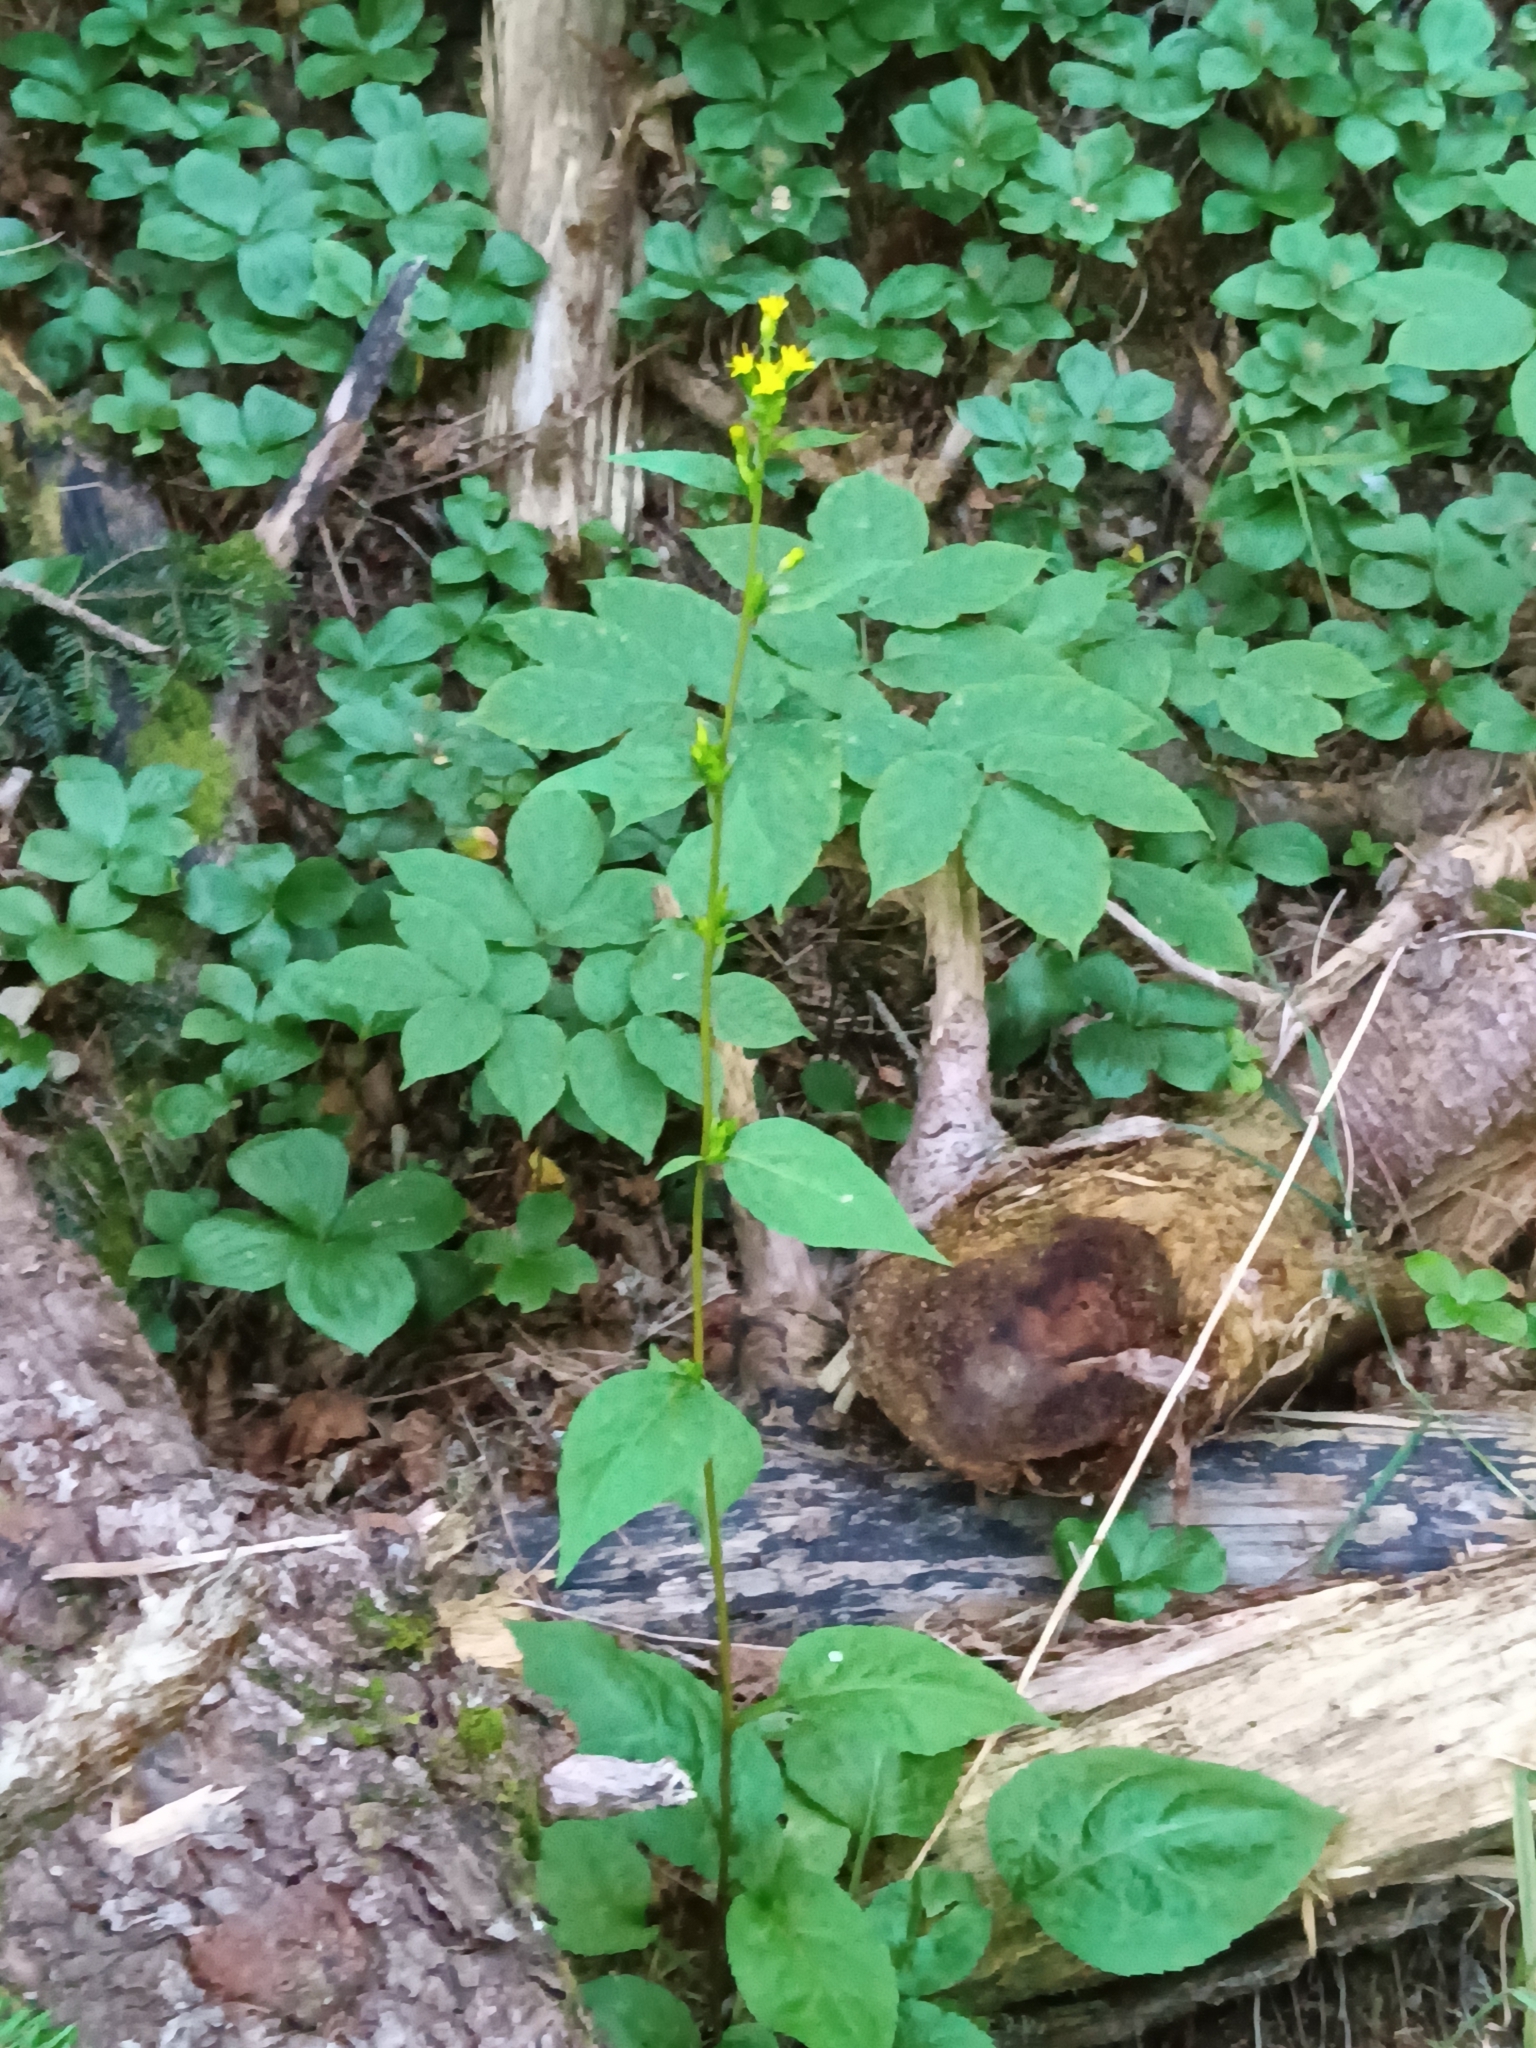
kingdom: Plantae
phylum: Tracheophyta
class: Magnoliopsida
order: Asterales
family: Asteraceae
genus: Solidago
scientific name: Solidago macrophylla
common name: Large-leaved goldenrod
